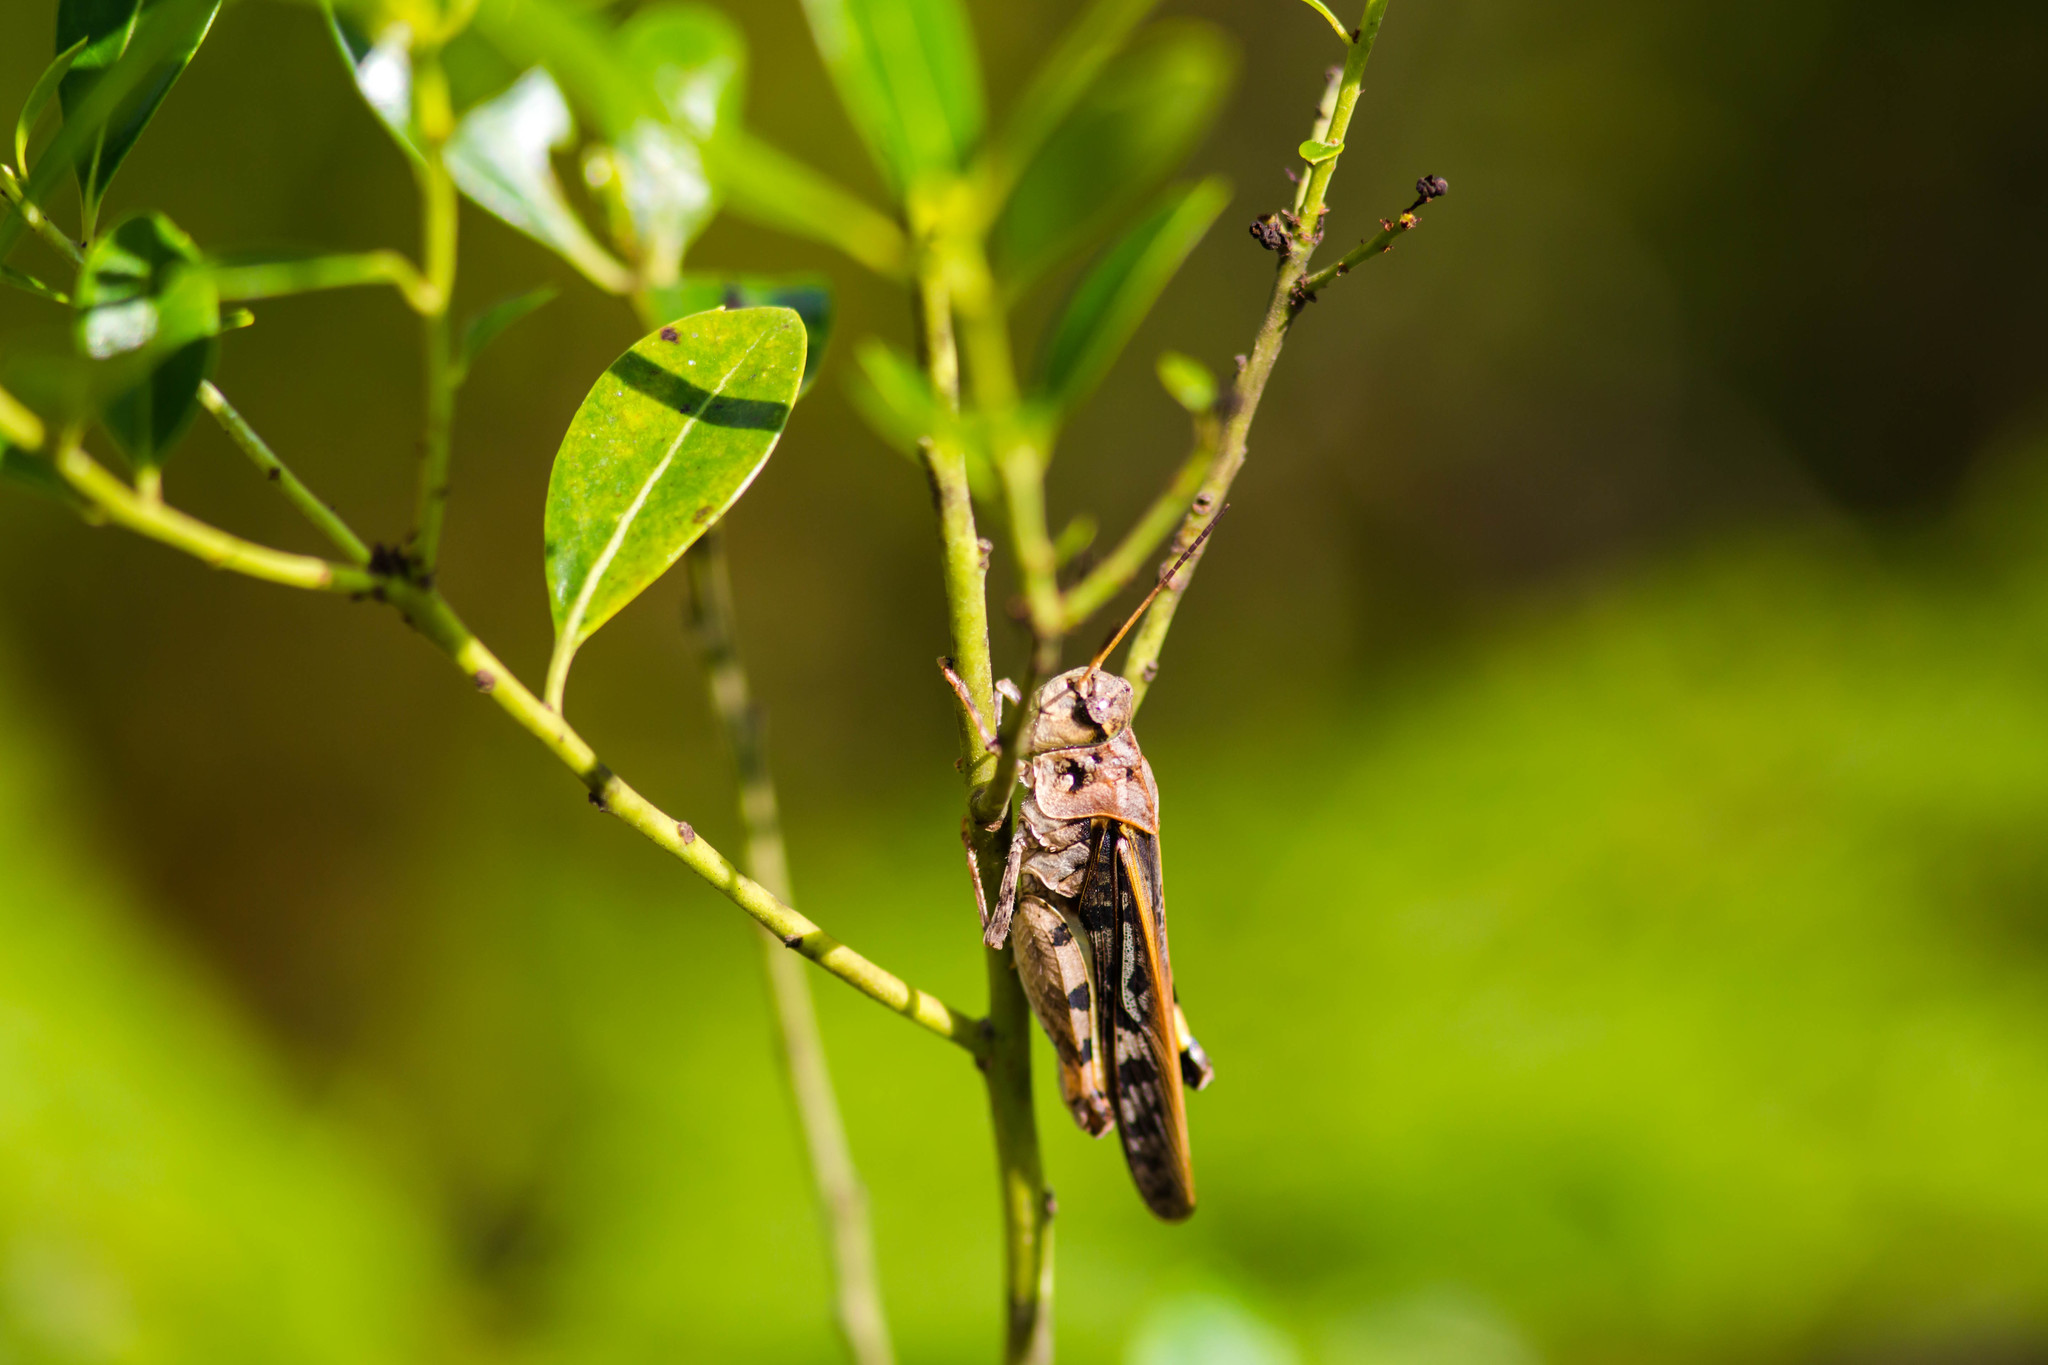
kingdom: Animalia
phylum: Arthropoda
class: Insecta
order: Orthoptera
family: Acrididae
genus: Pardalophora
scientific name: Pardalophora phoenicoptera
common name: Orange-winged grasshopper
